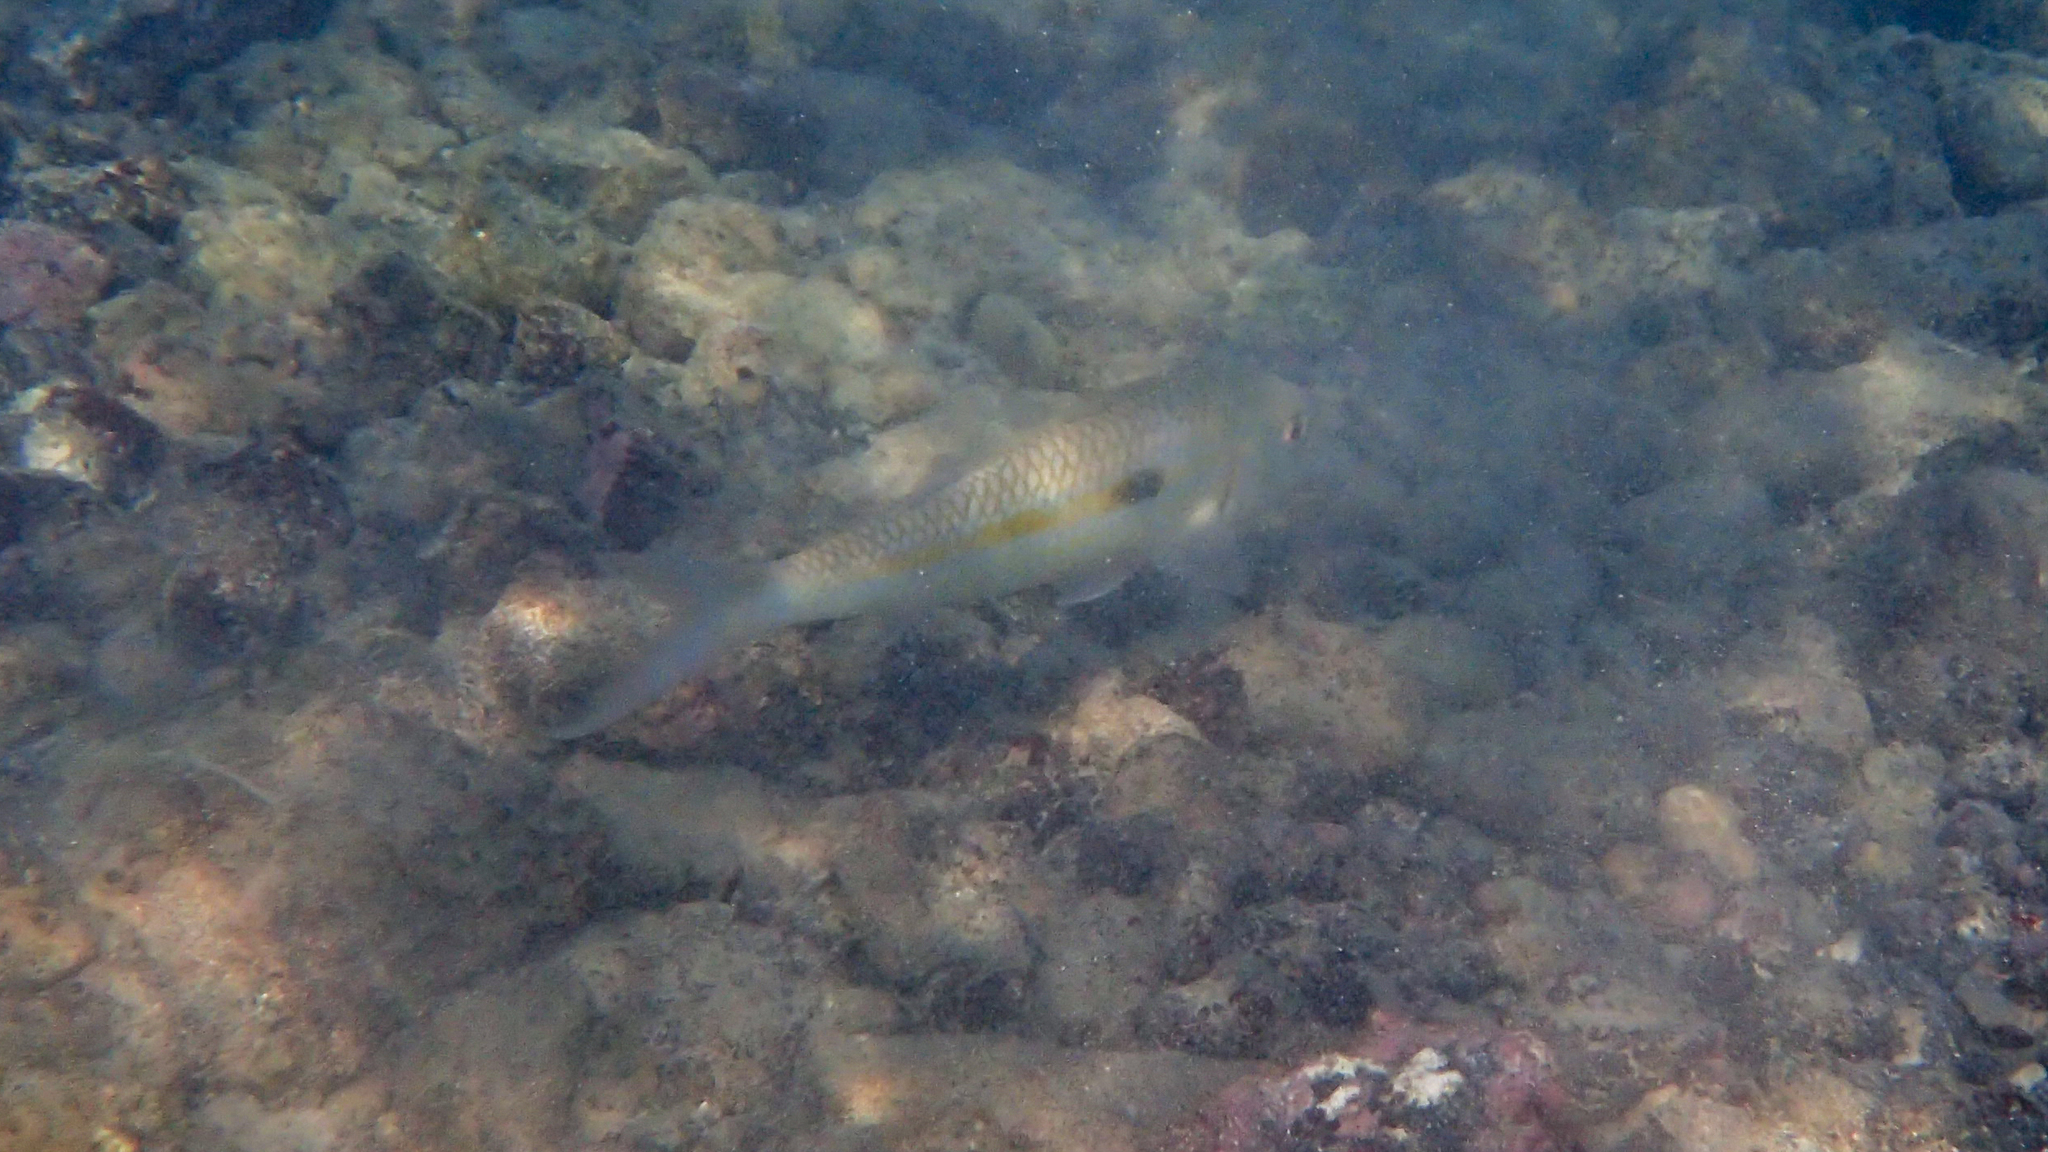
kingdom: Animalia
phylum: Chordata
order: Perciformes
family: Mullidae
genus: Mulloidichthys
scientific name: Mulloidichthys flavolineatus
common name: Yellowstripe goatfish
